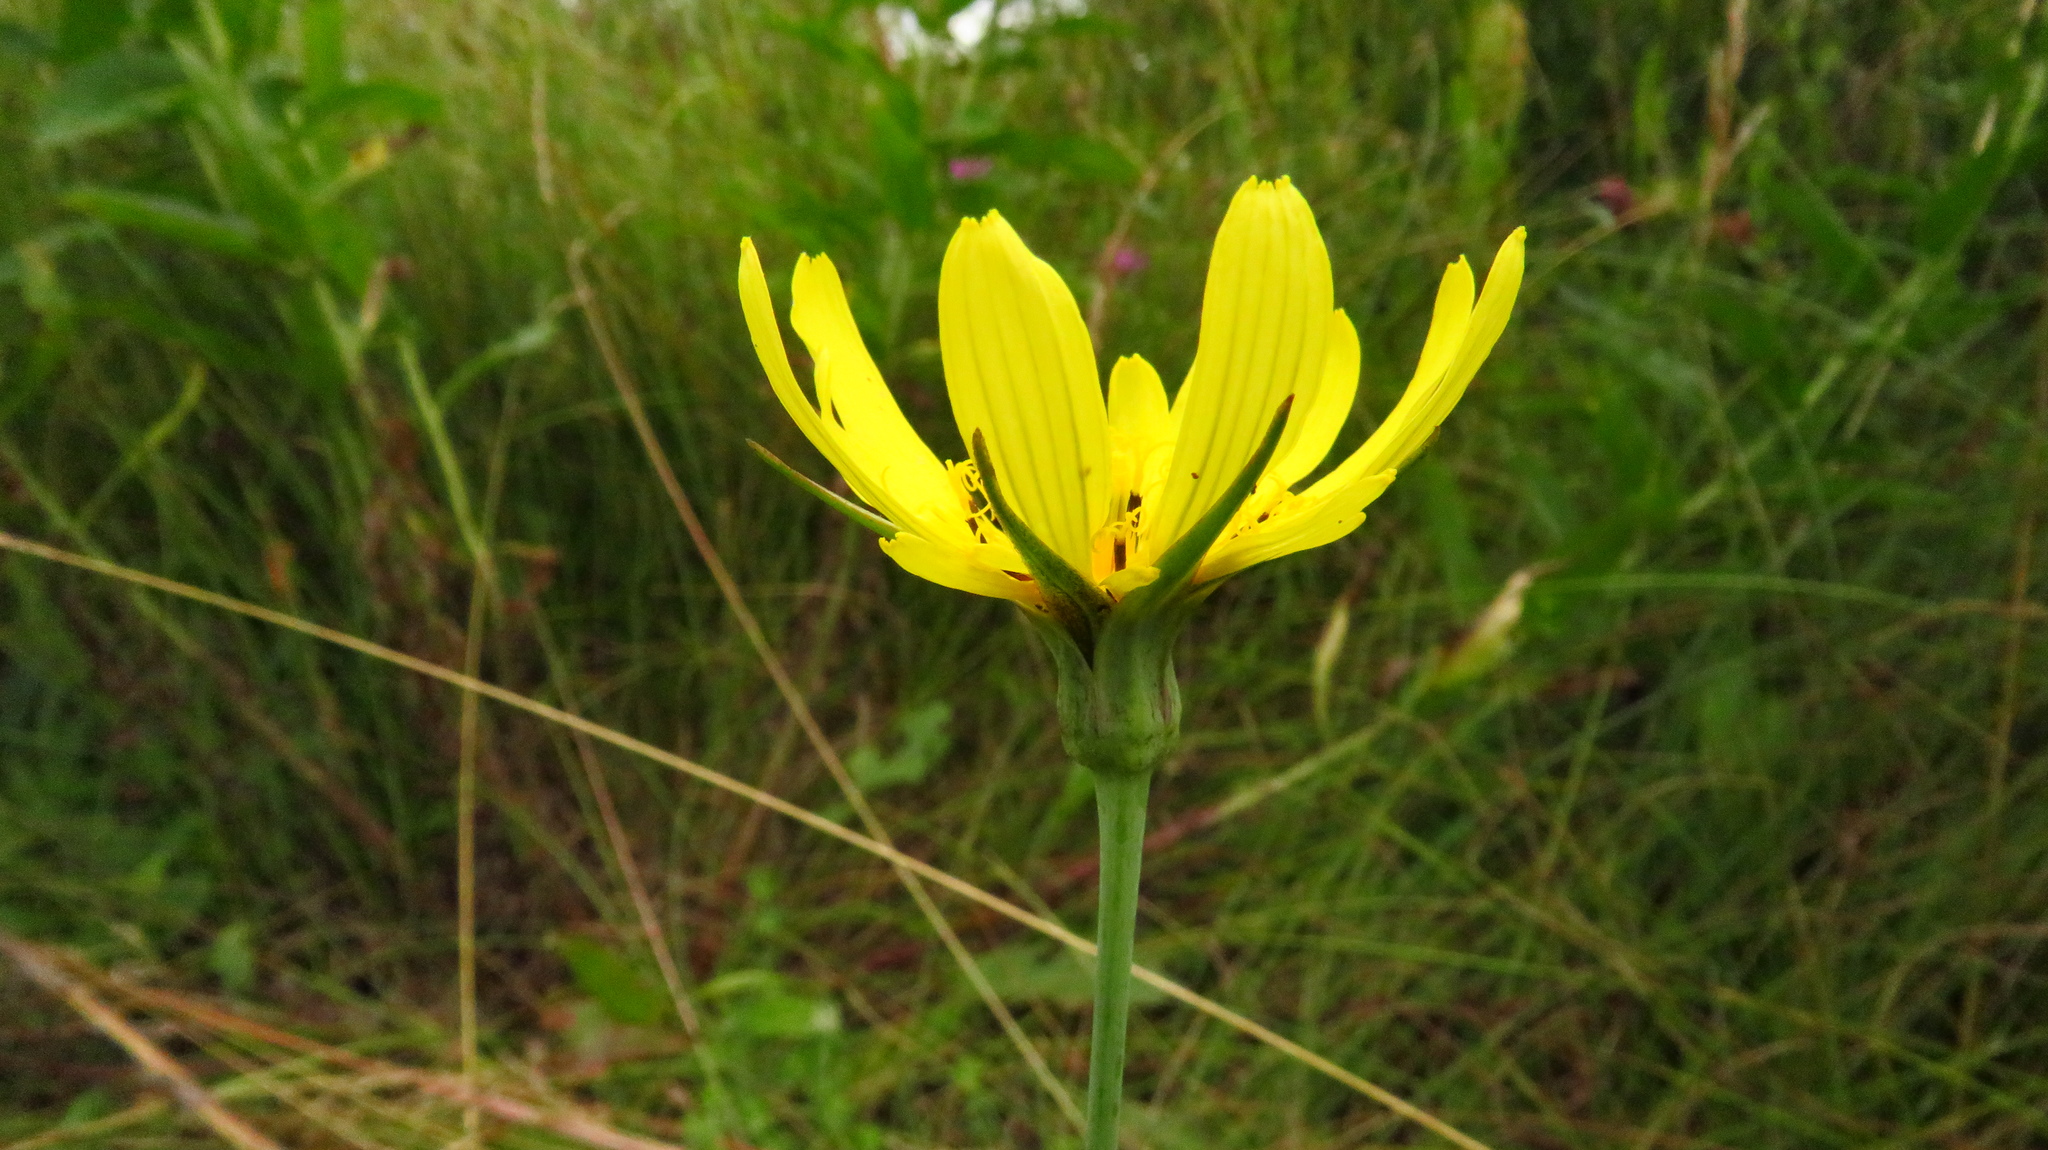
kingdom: Plantae
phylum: Tracheophyta
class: Magnoliopsida
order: Asterales
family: Asteraceae
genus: Tragopogon
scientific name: Tragopogon orientalis
